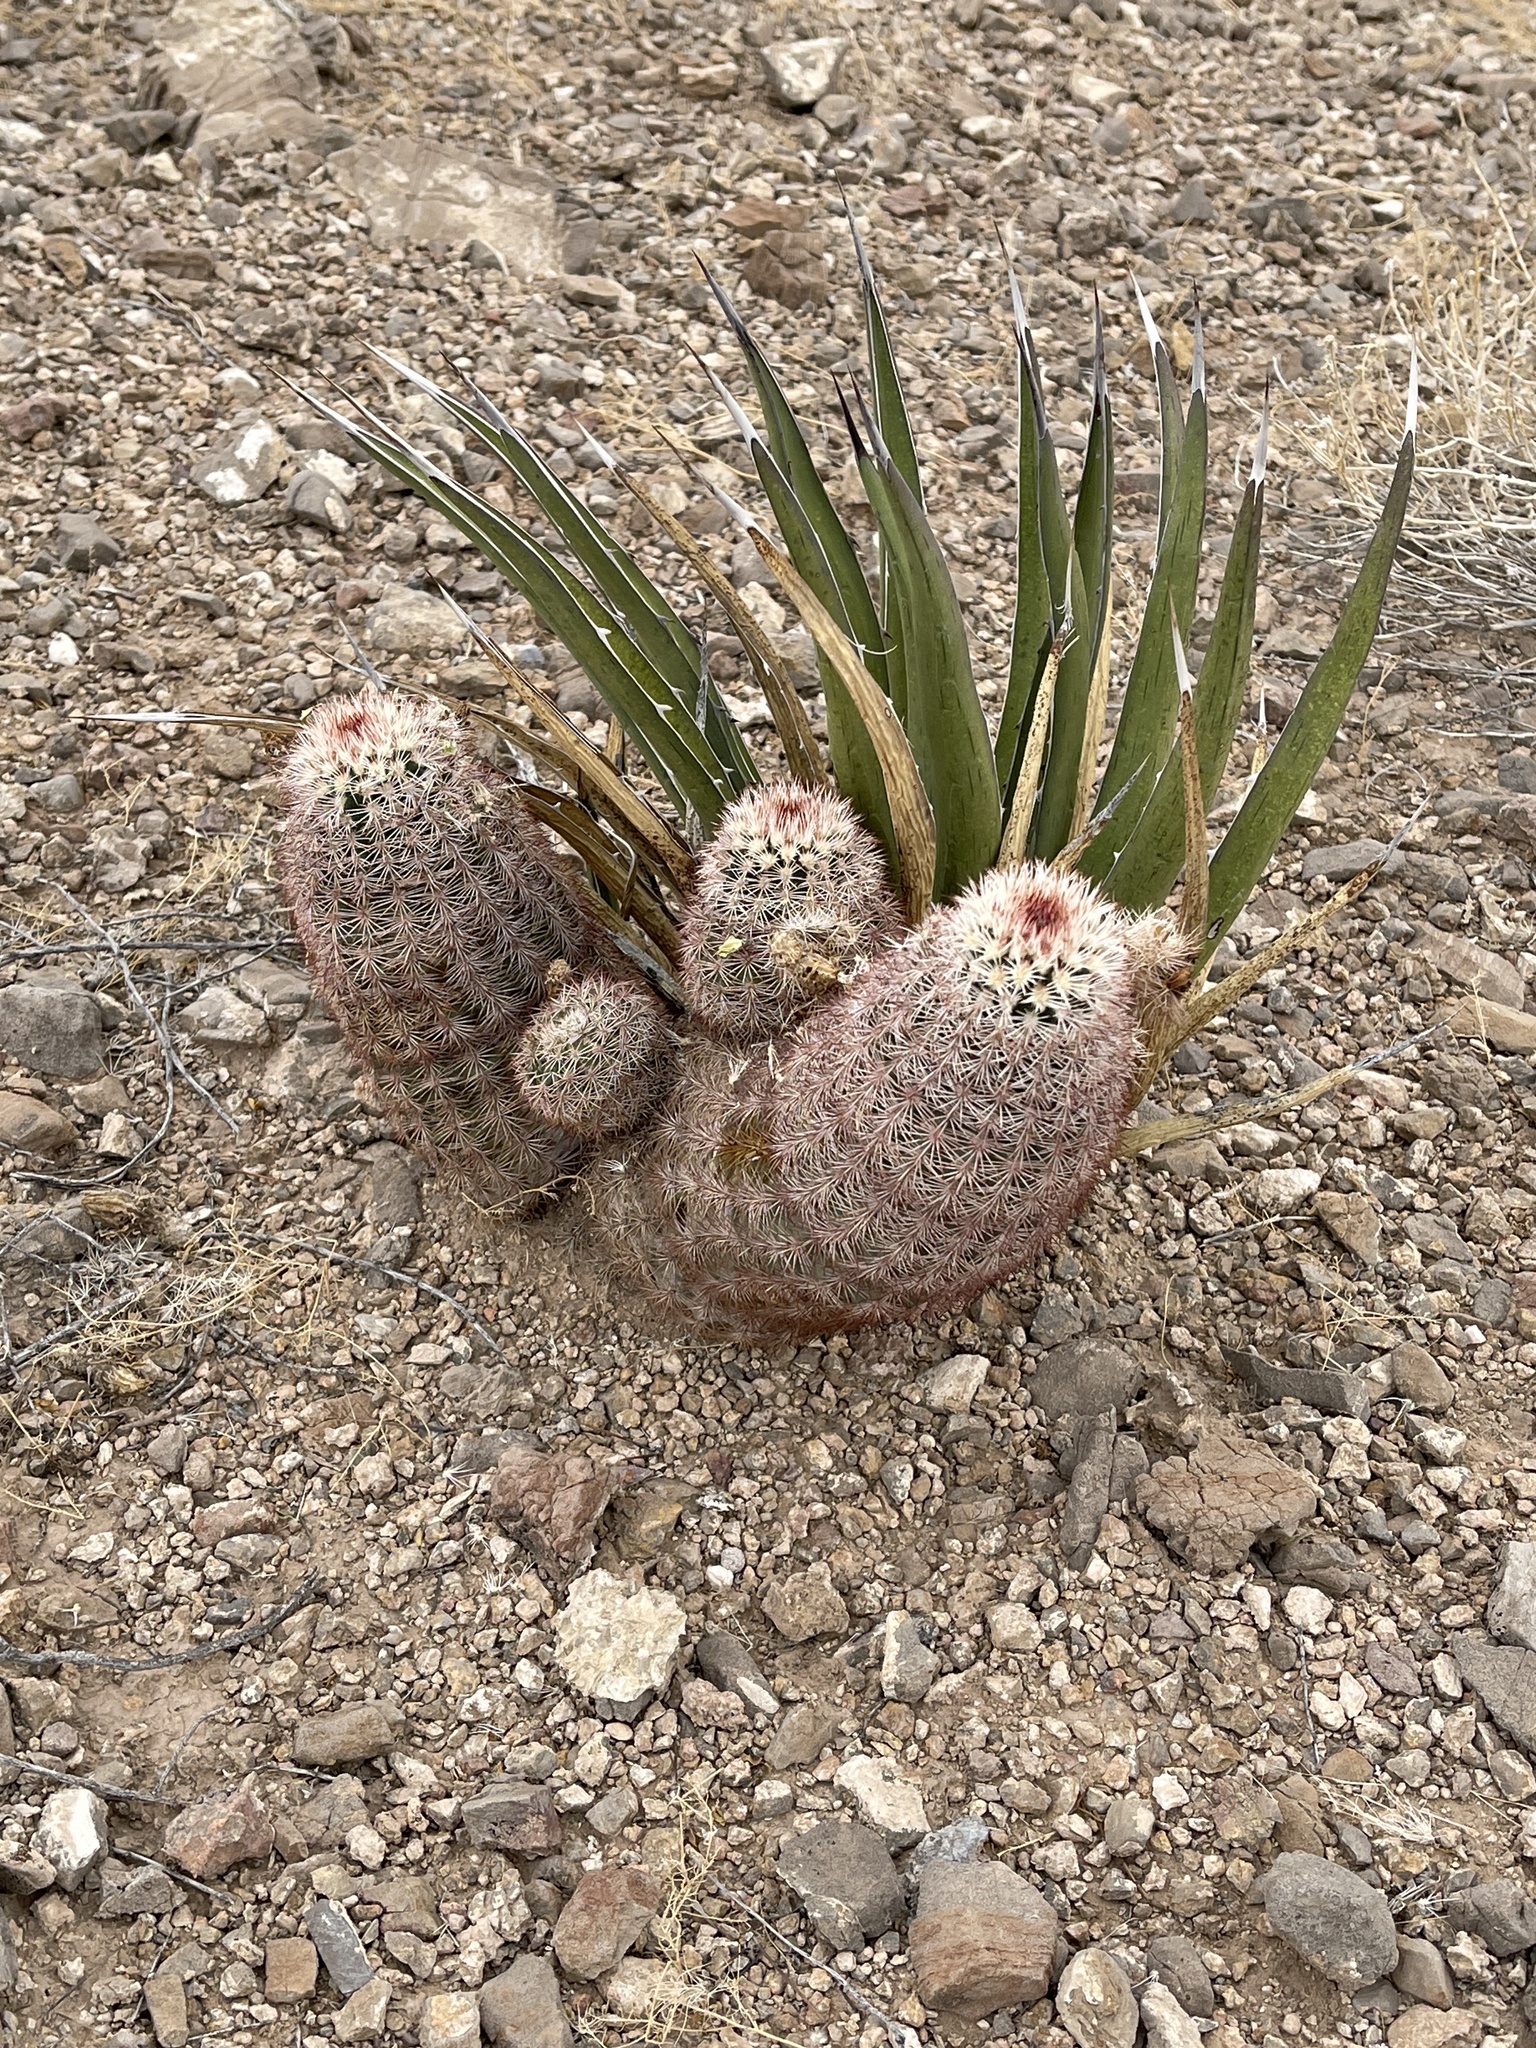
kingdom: Plantae
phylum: Tracheophyta
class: Magnoliopsida
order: Caryophyllales
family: Cactaceae
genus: Echinocereus
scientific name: Echinocereus dasyacanthus
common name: Spiny hedgehog cactus
